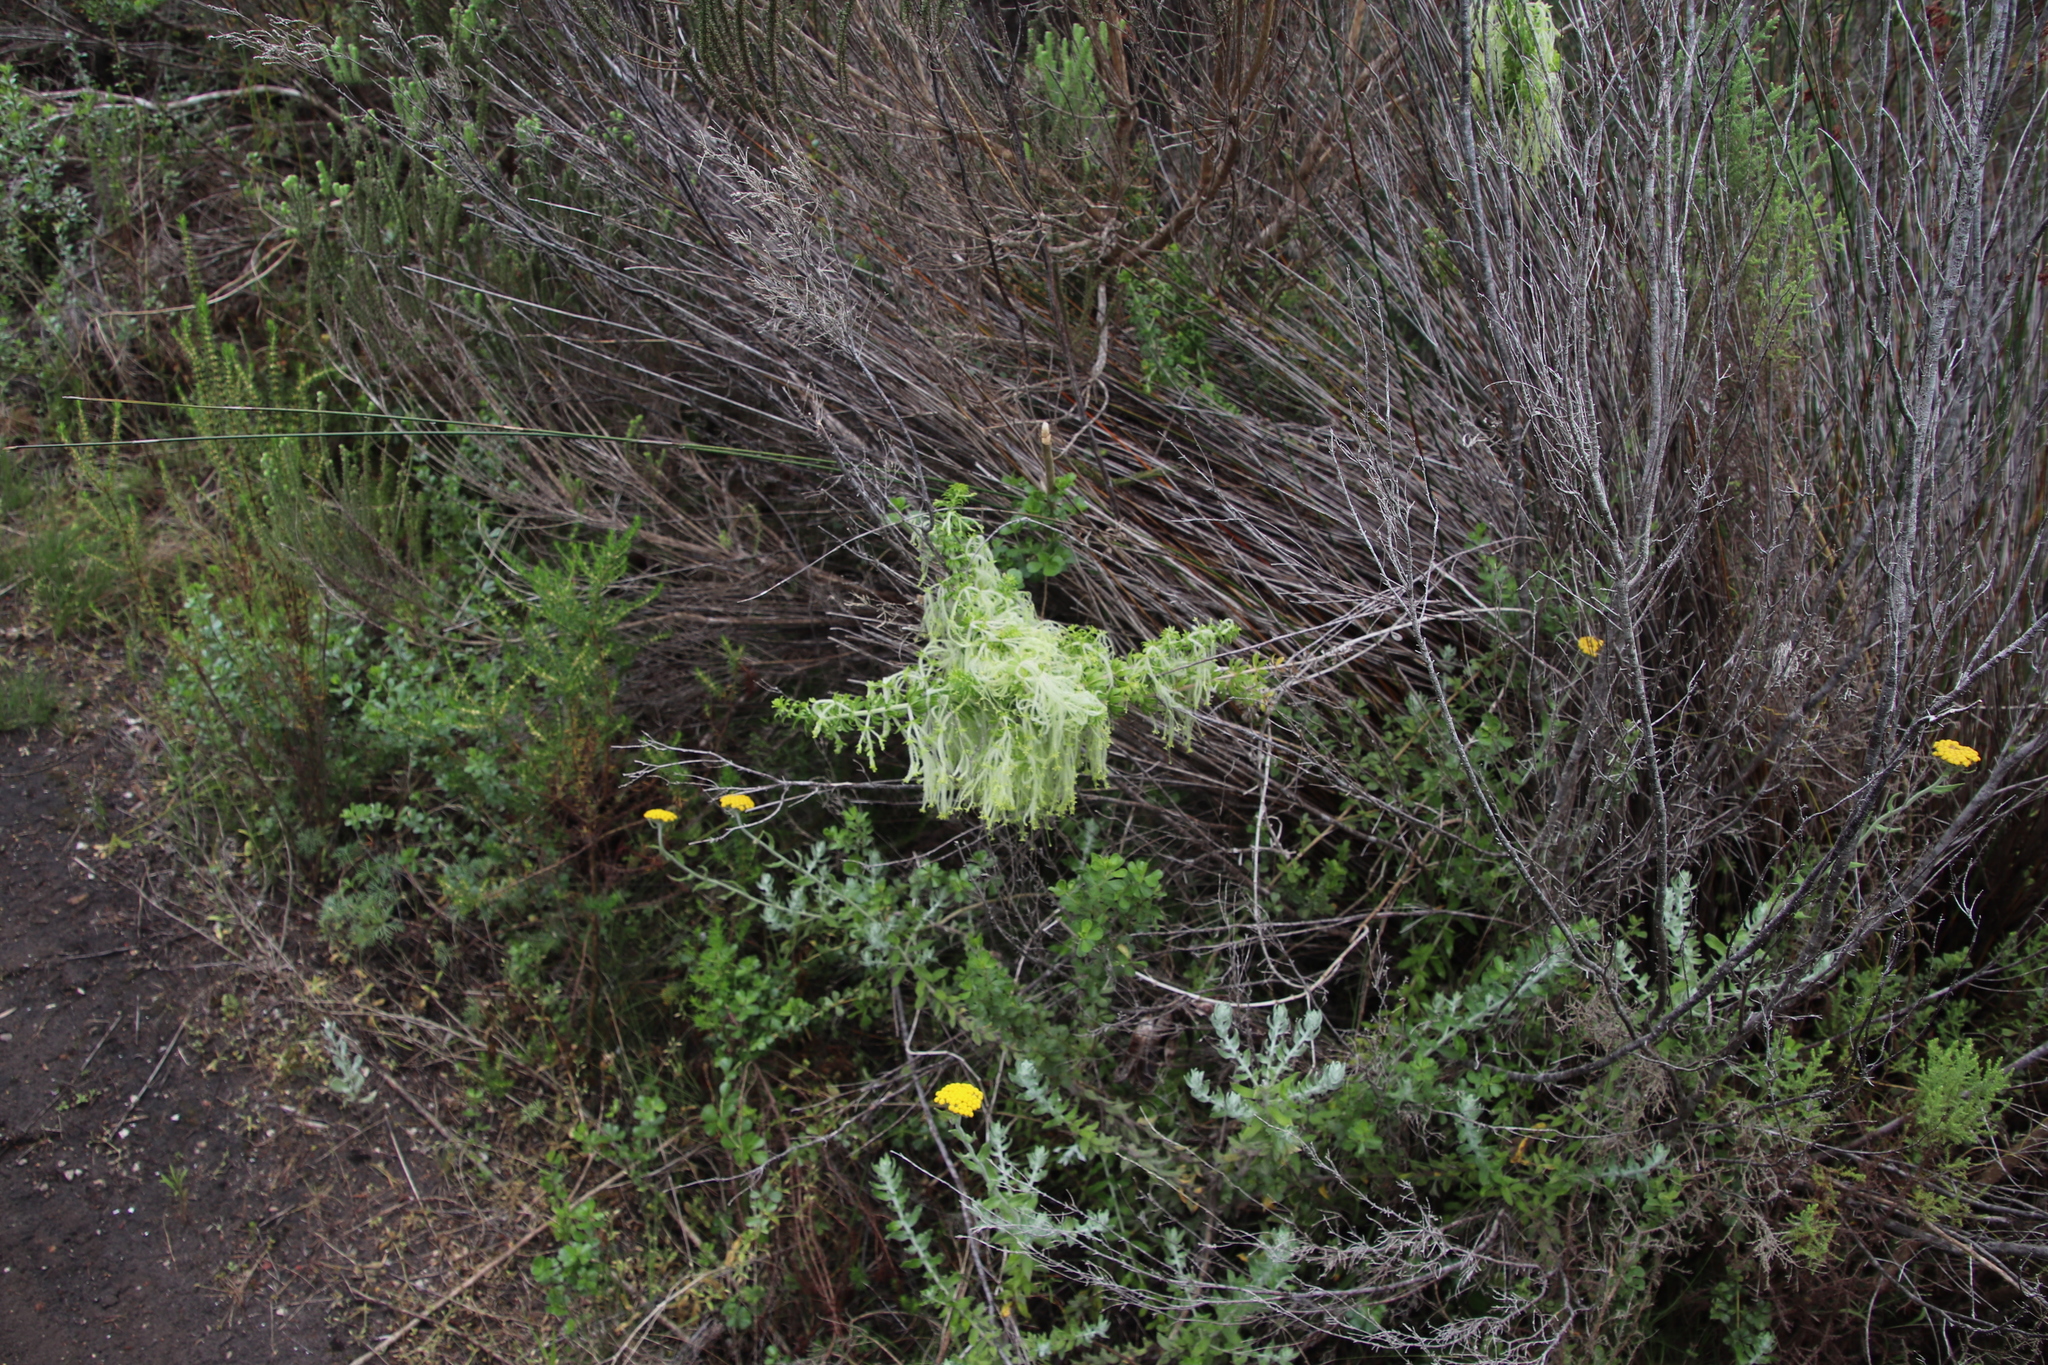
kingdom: Plantae
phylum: Tracheophyta
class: Magnoliopsida
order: Gentianales
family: Rubiaceae
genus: Galium
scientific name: Galium tomentosum
